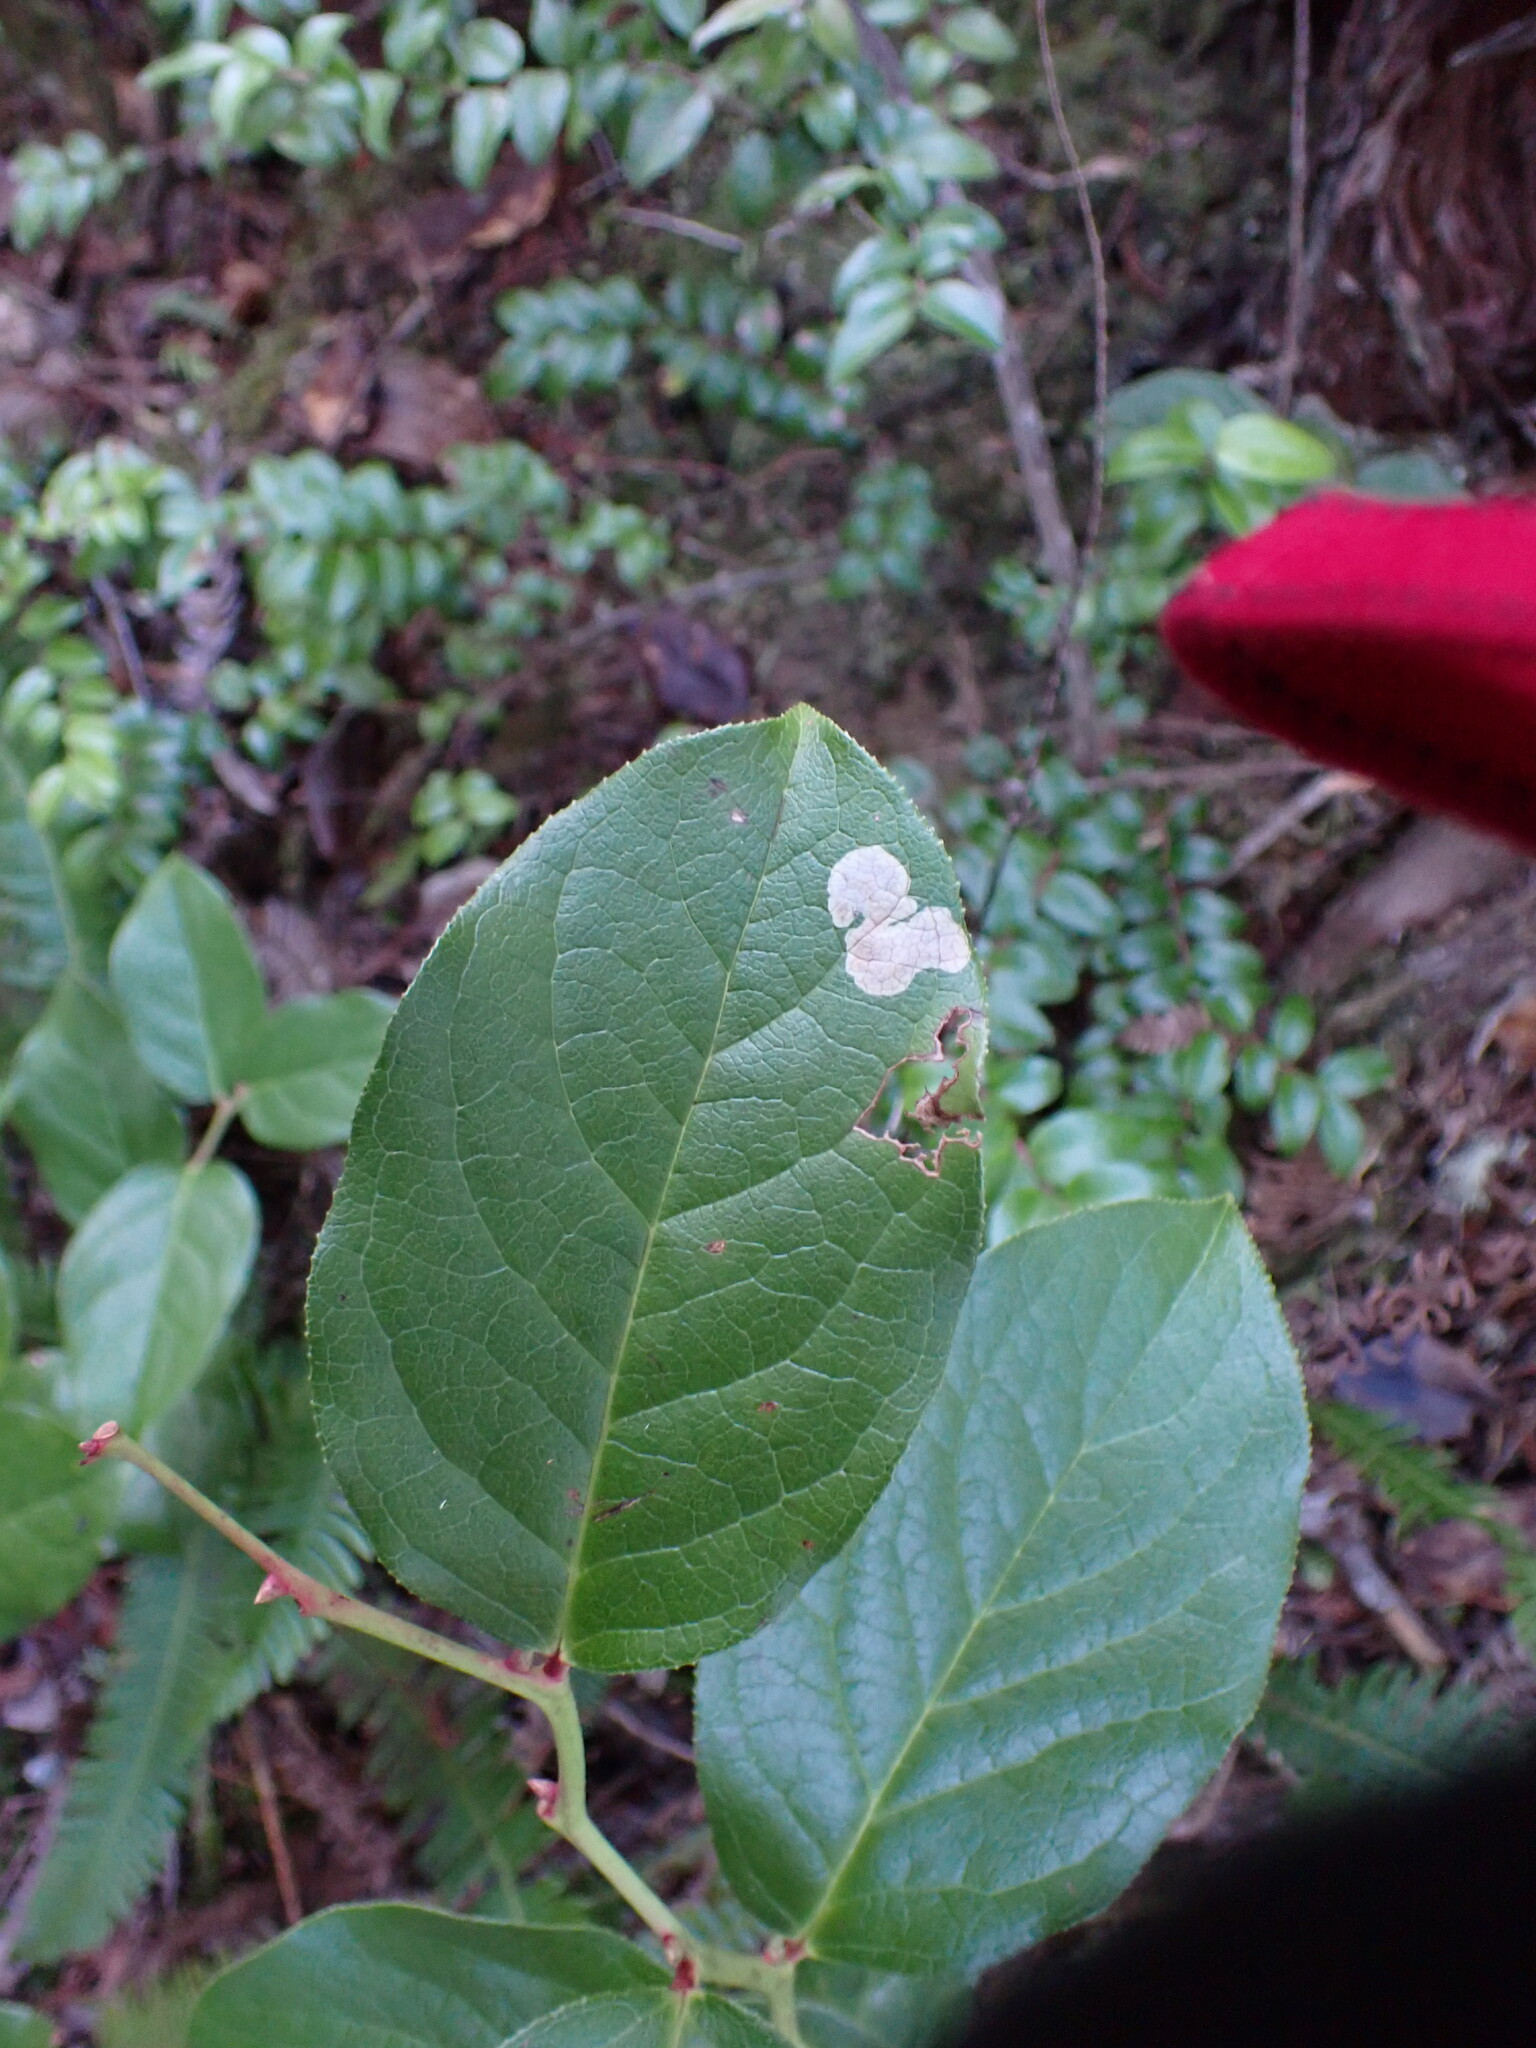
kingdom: Animalia
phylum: Arthropoda
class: Insecta
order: Lepidoptera
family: Gracillariidae
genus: Cameraria
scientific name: Cameraria gaultheriella
